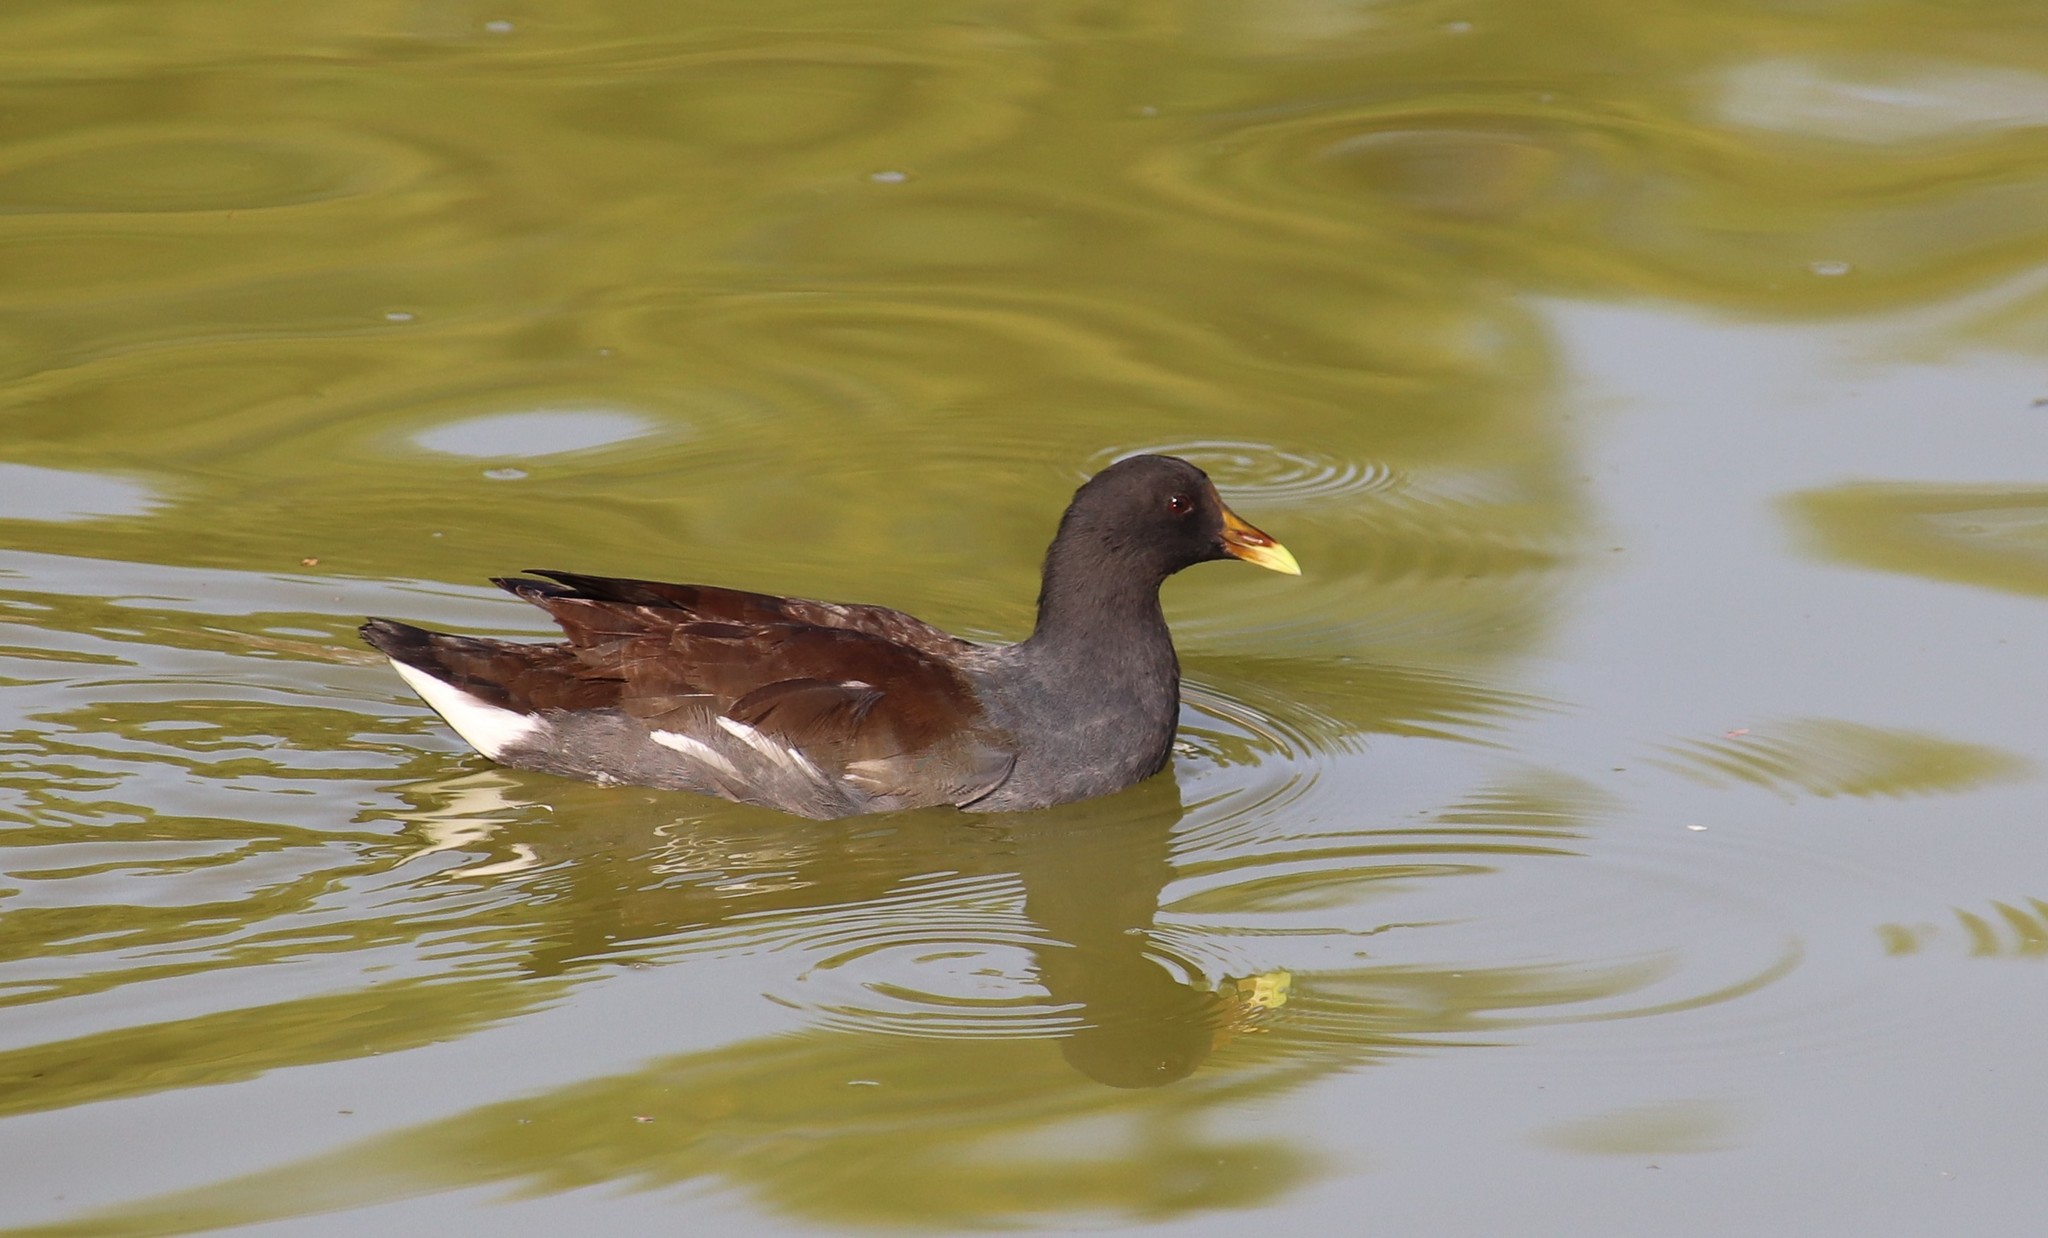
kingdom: Animalia
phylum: Chordata
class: Aves
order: Gruiformes
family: Rallidae
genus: Gallinula
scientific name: Gallinula chloropus
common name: Common moorhen
